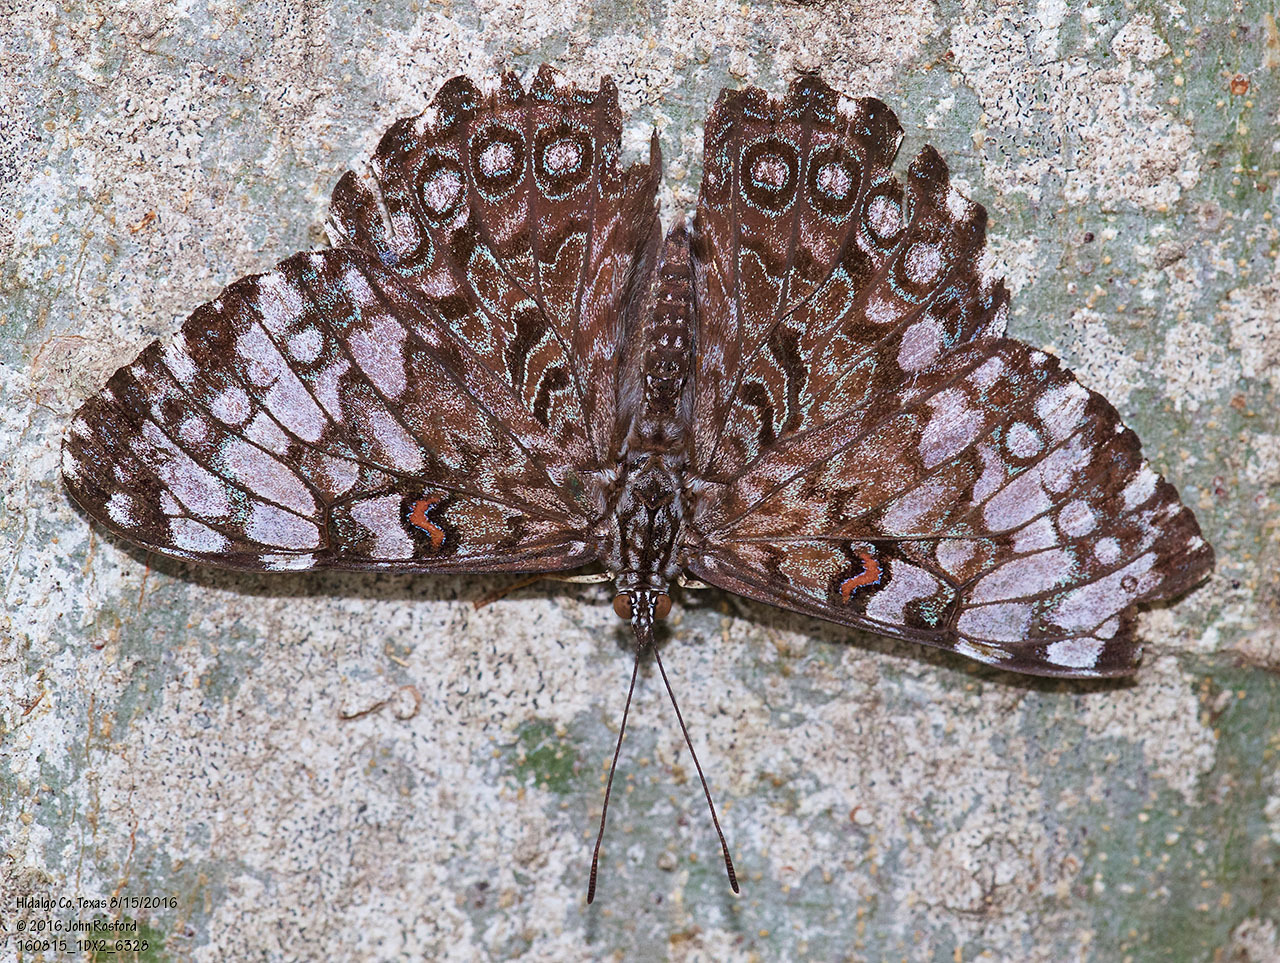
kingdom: Animalia
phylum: Arthropoda
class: Insecta
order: Lepidoptera
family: Nymphalidae
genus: Hamadryas
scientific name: Hamadryas guatemalena
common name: Guatemalan cracker
